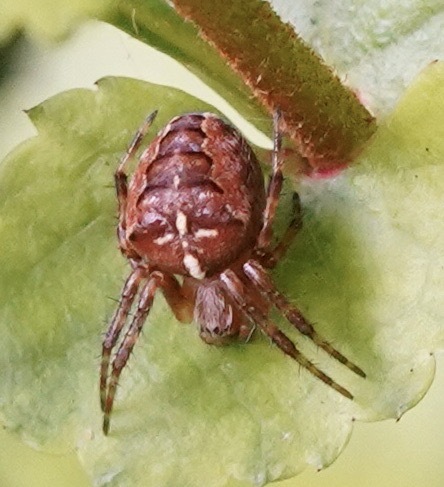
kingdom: Animalia
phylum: Arthropoda
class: Arachnida
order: Araneae
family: Araneidae
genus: Araneus
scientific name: Araneus diadematus
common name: Cross orbweaver
